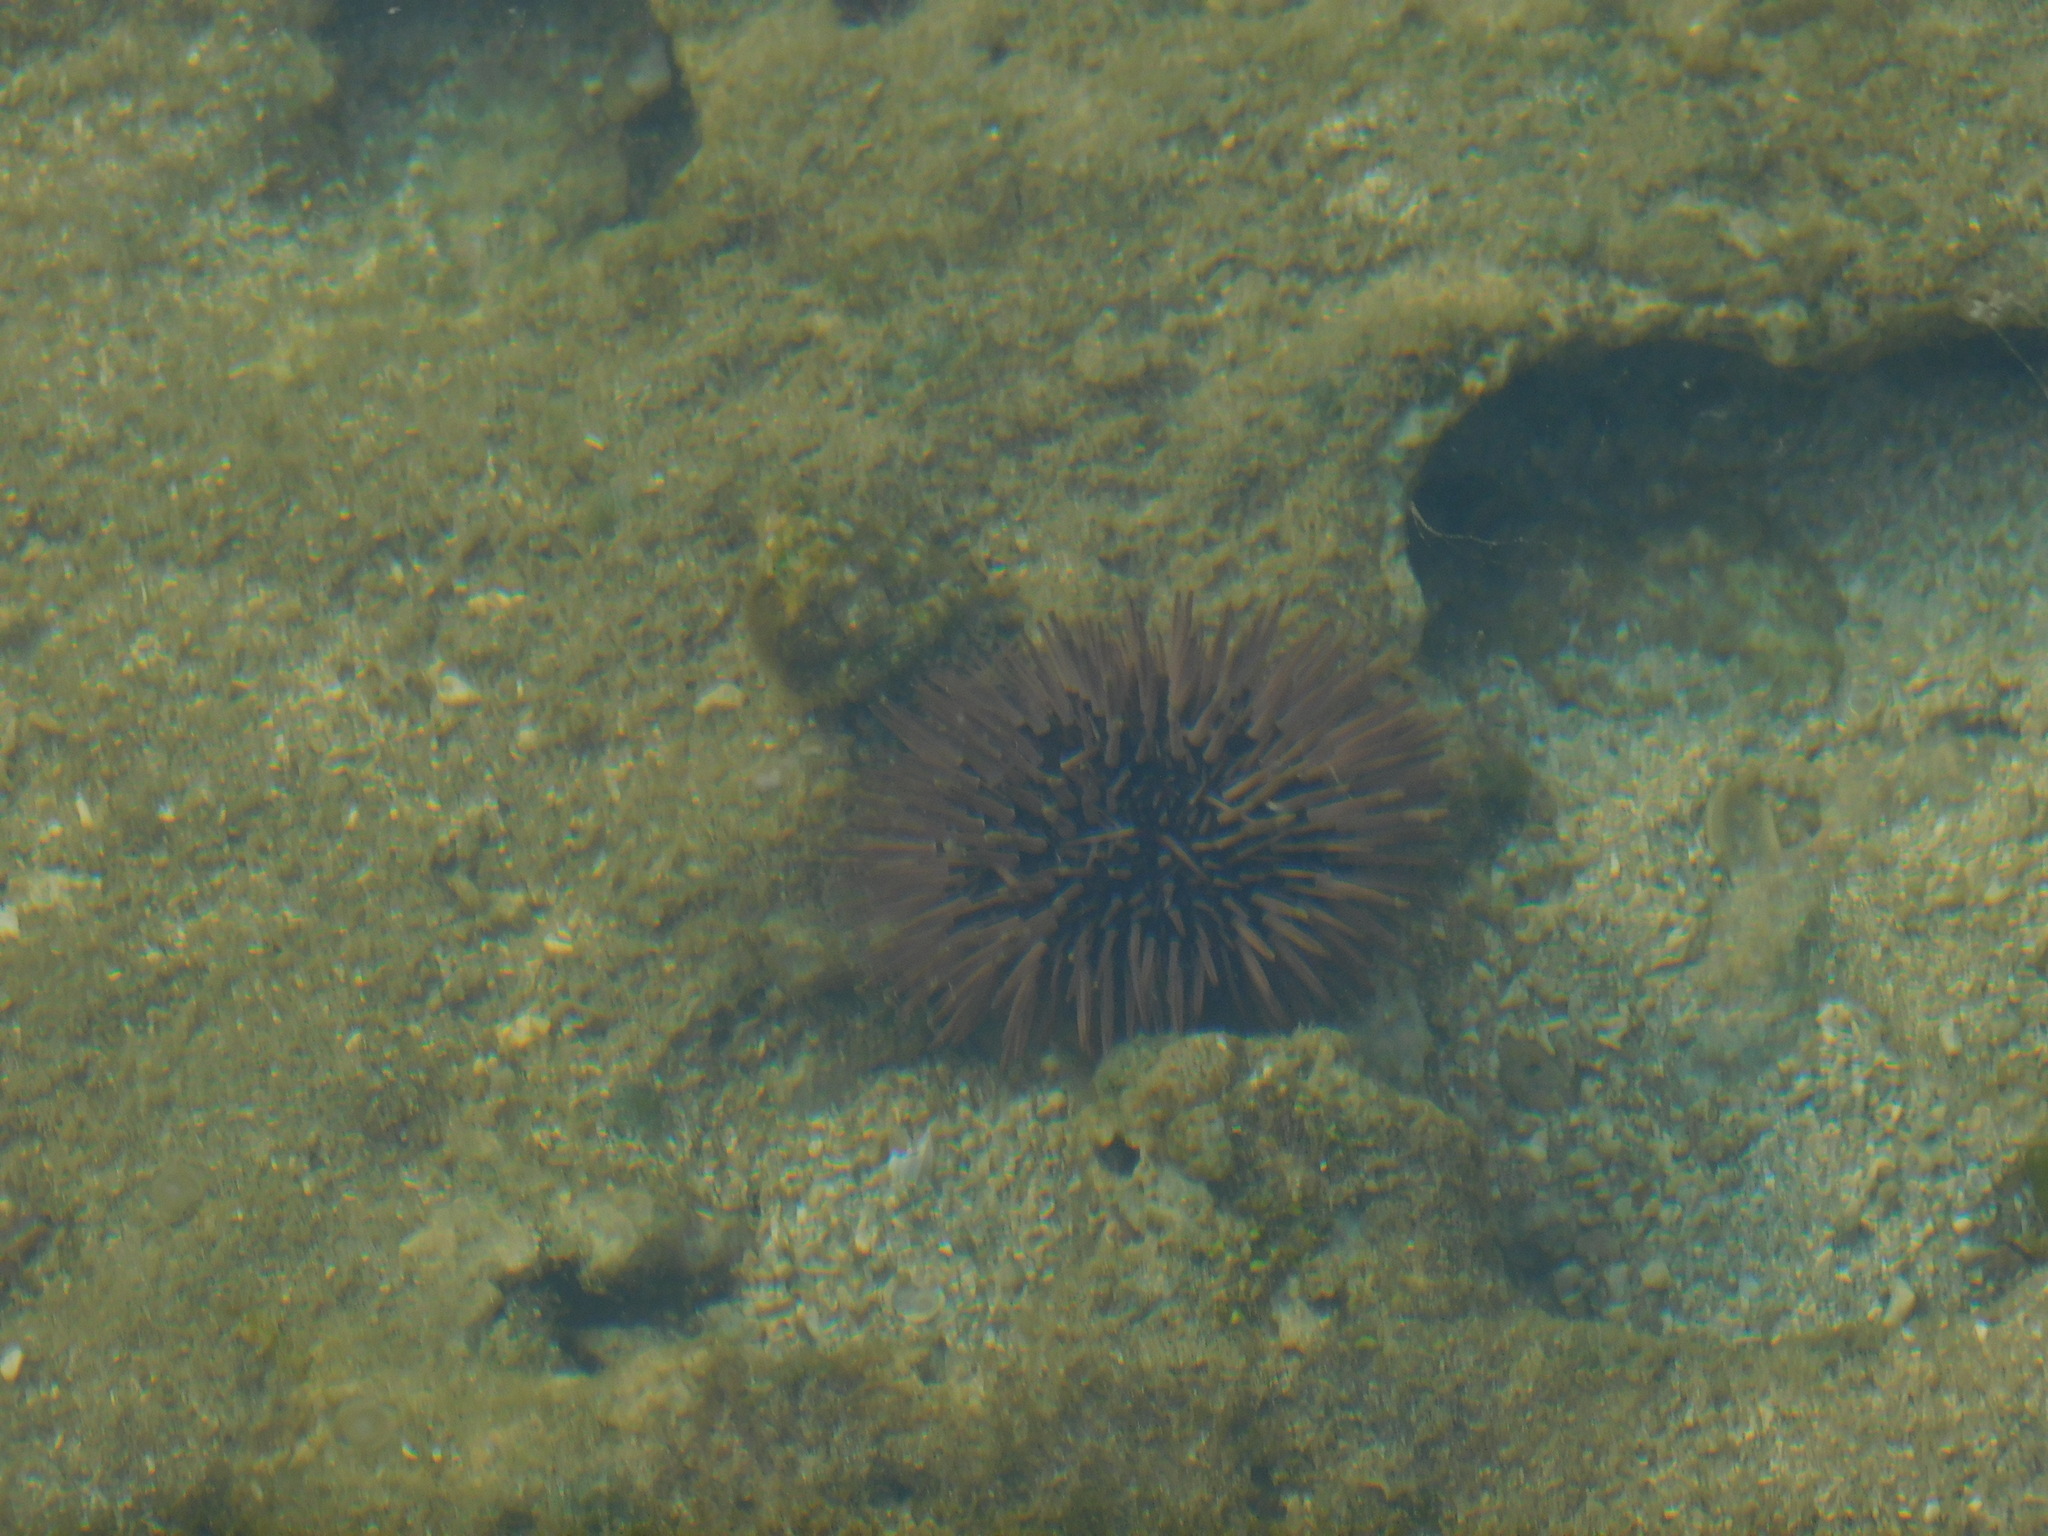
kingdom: Animalia
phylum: Echinodermata
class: Echinoidea
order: Camarodonta
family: Echinometridae
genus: Echinometra
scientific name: Echinometra mathaei
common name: Rock-boring urchin
